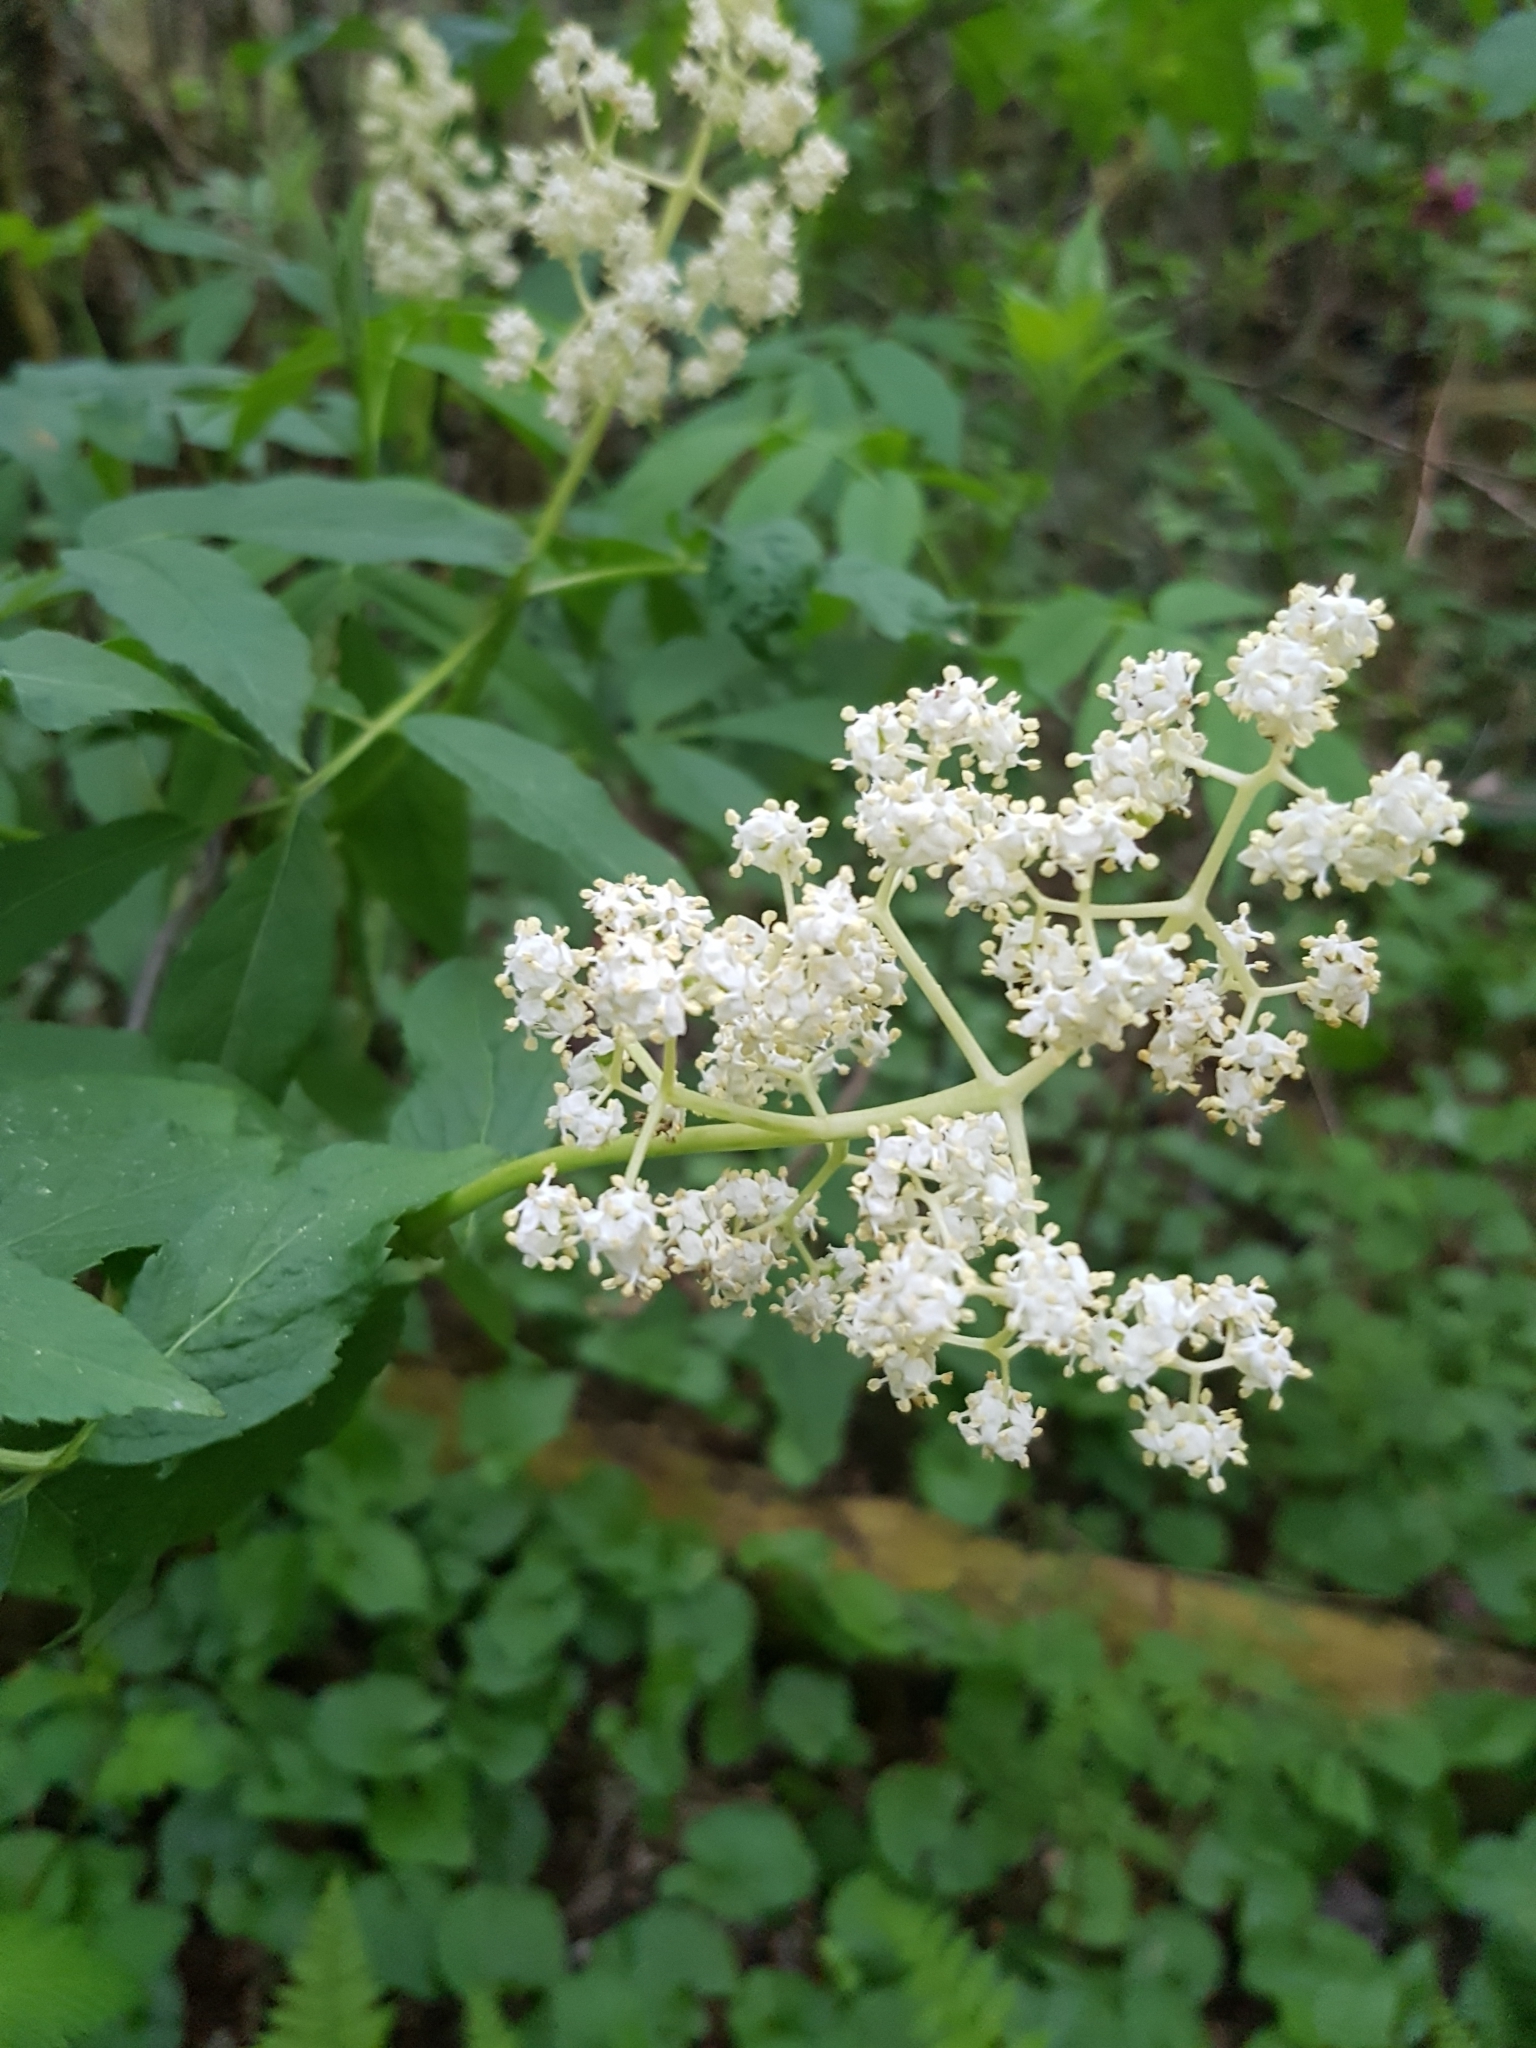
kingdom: Plantae
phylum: Tracheophyta
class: Magnoliopsida
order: Dipsacales
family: Viburnaceae
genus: Sambucus
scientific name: Sambucus racemosa
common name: Red-berried elder
